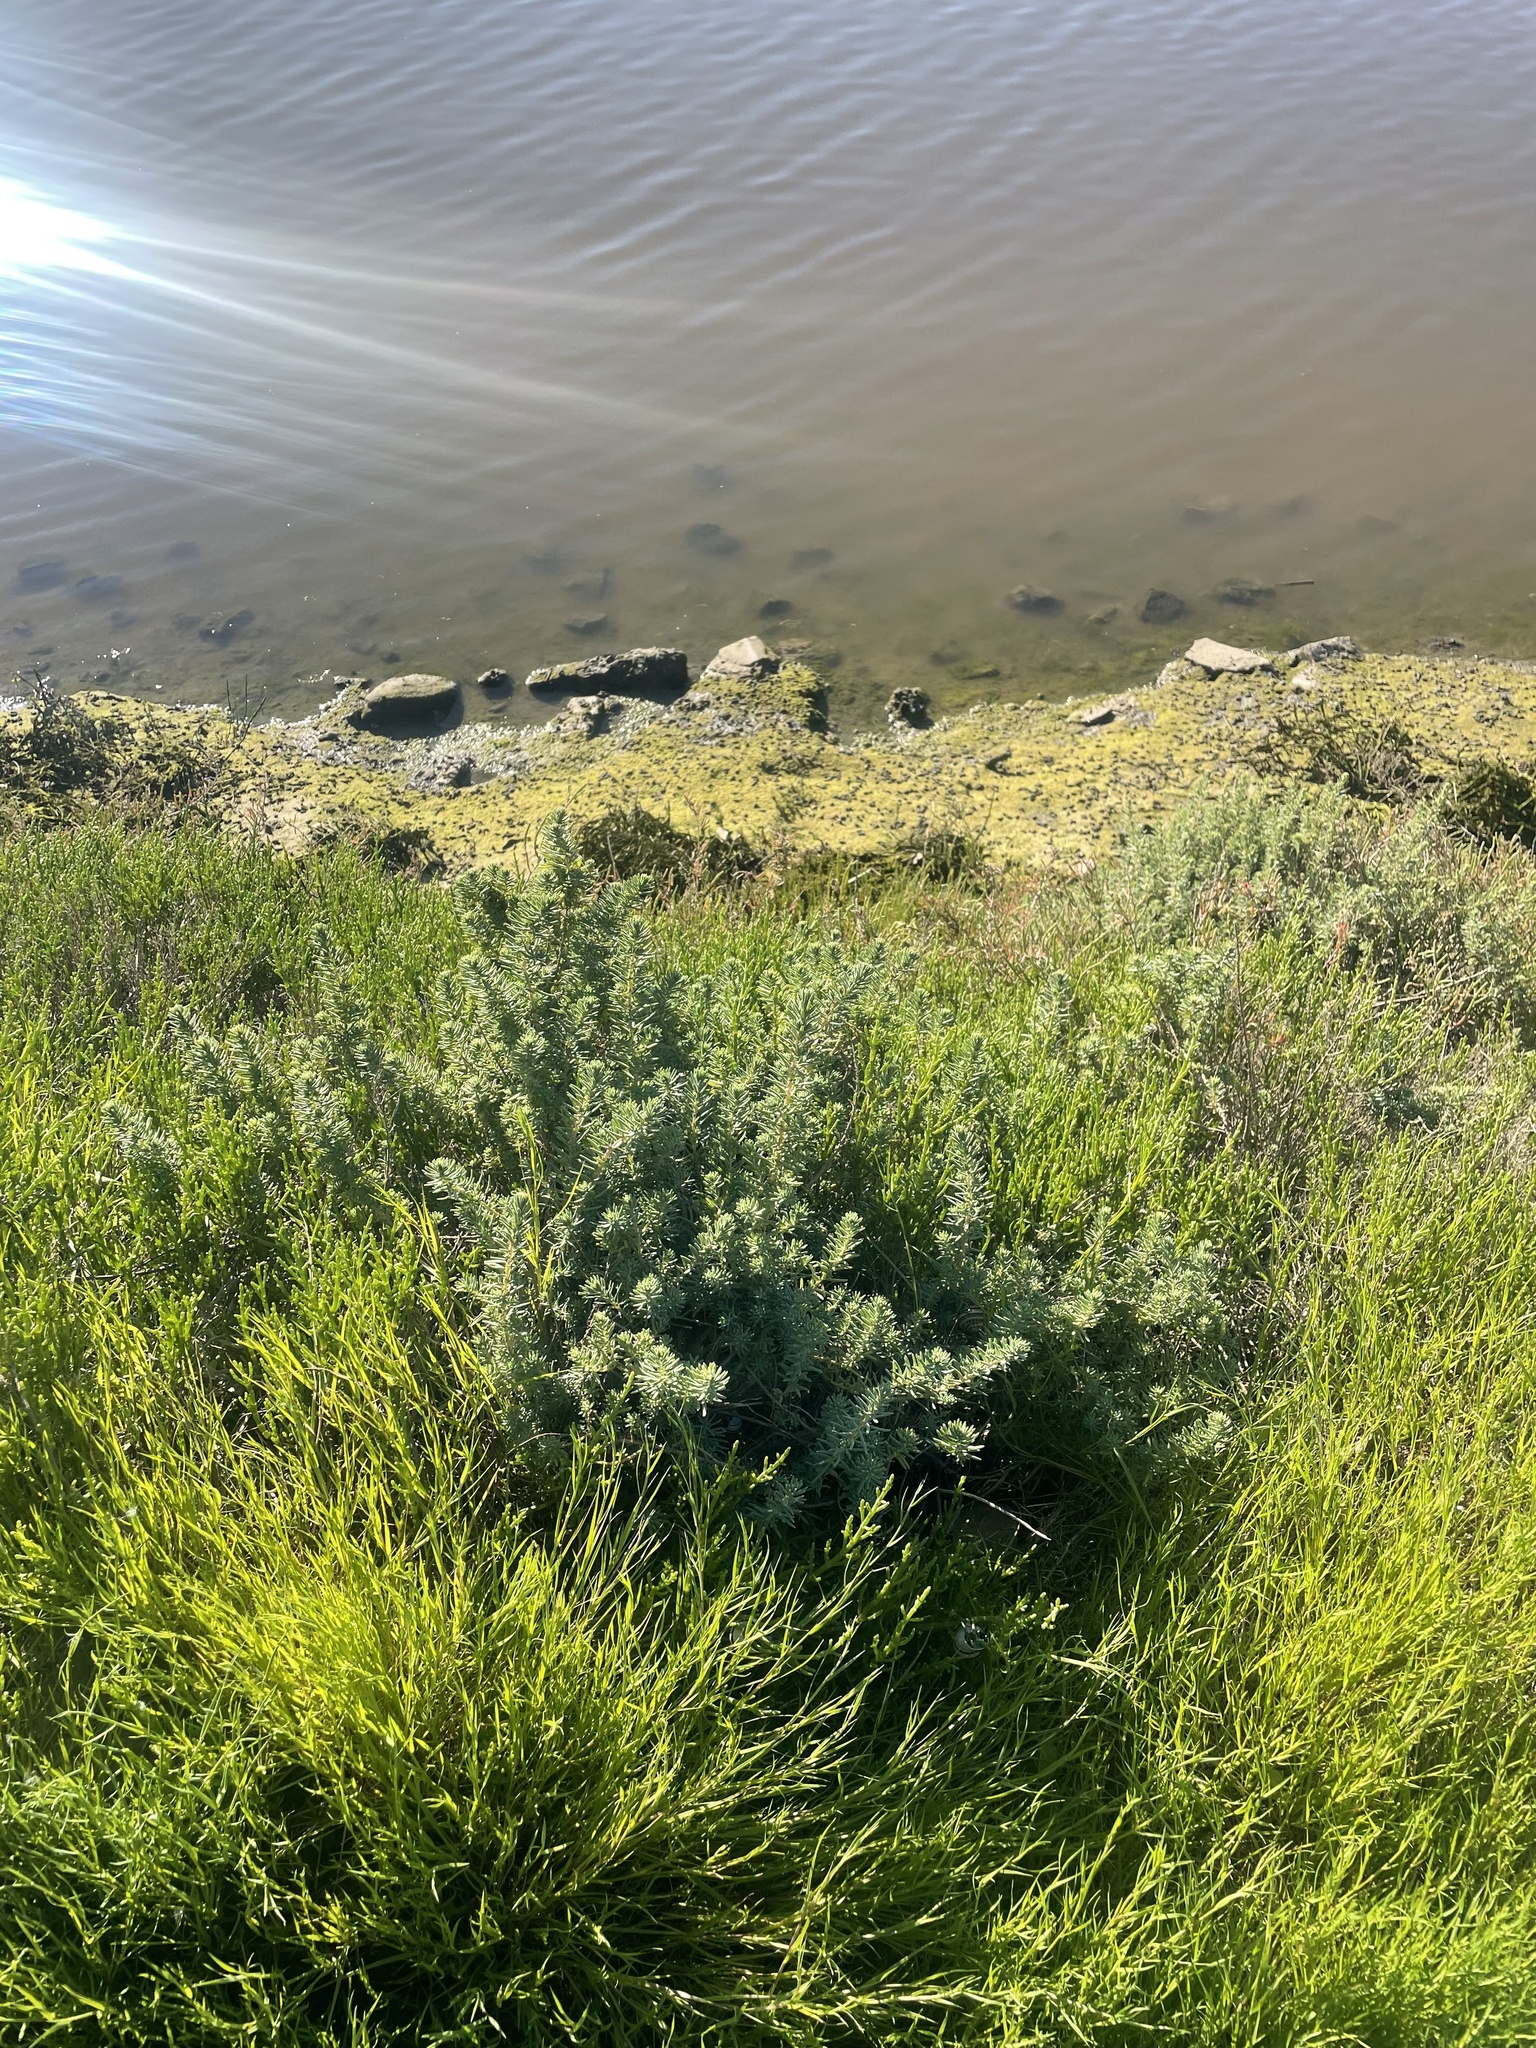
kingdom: Plantae
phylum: Tracheophyta
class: Magnoliopsida
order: Caryophyllales
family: Amaranthaceae
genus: Suaeda
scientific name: Suaeda taxifolia
